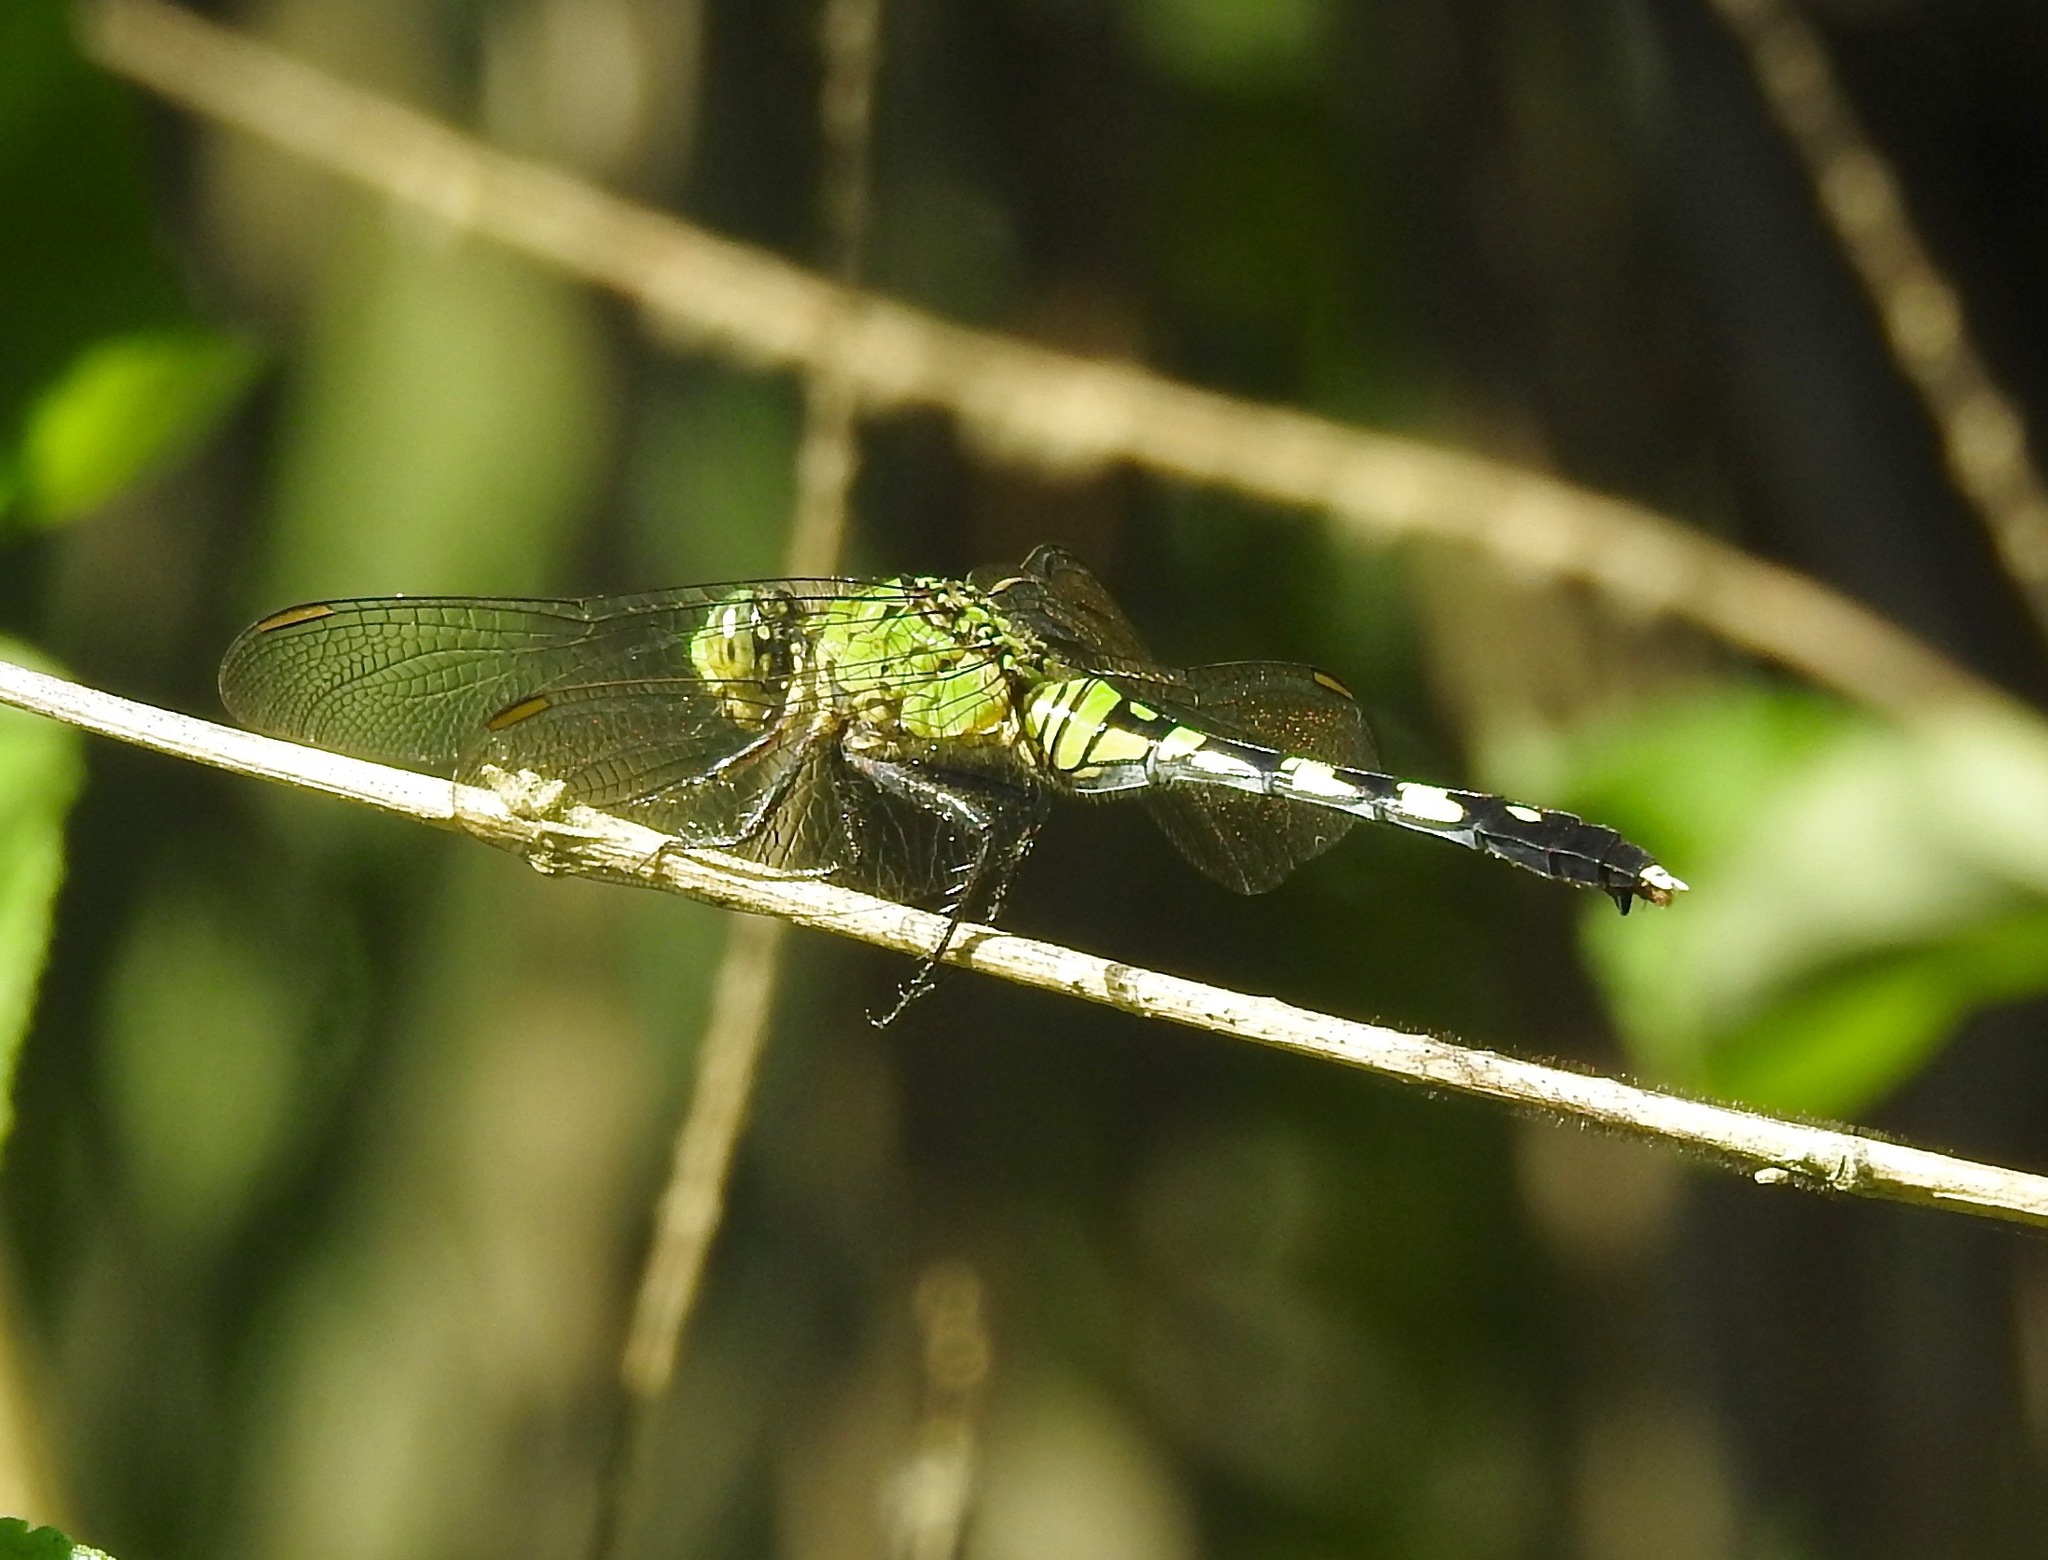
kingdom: Animalia
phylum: Arthropoda
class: Insecta
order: Odonata
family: Libellulidae
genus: Erythemis
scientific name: Erythemis simplicicollis
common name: Eastern pondhawk
